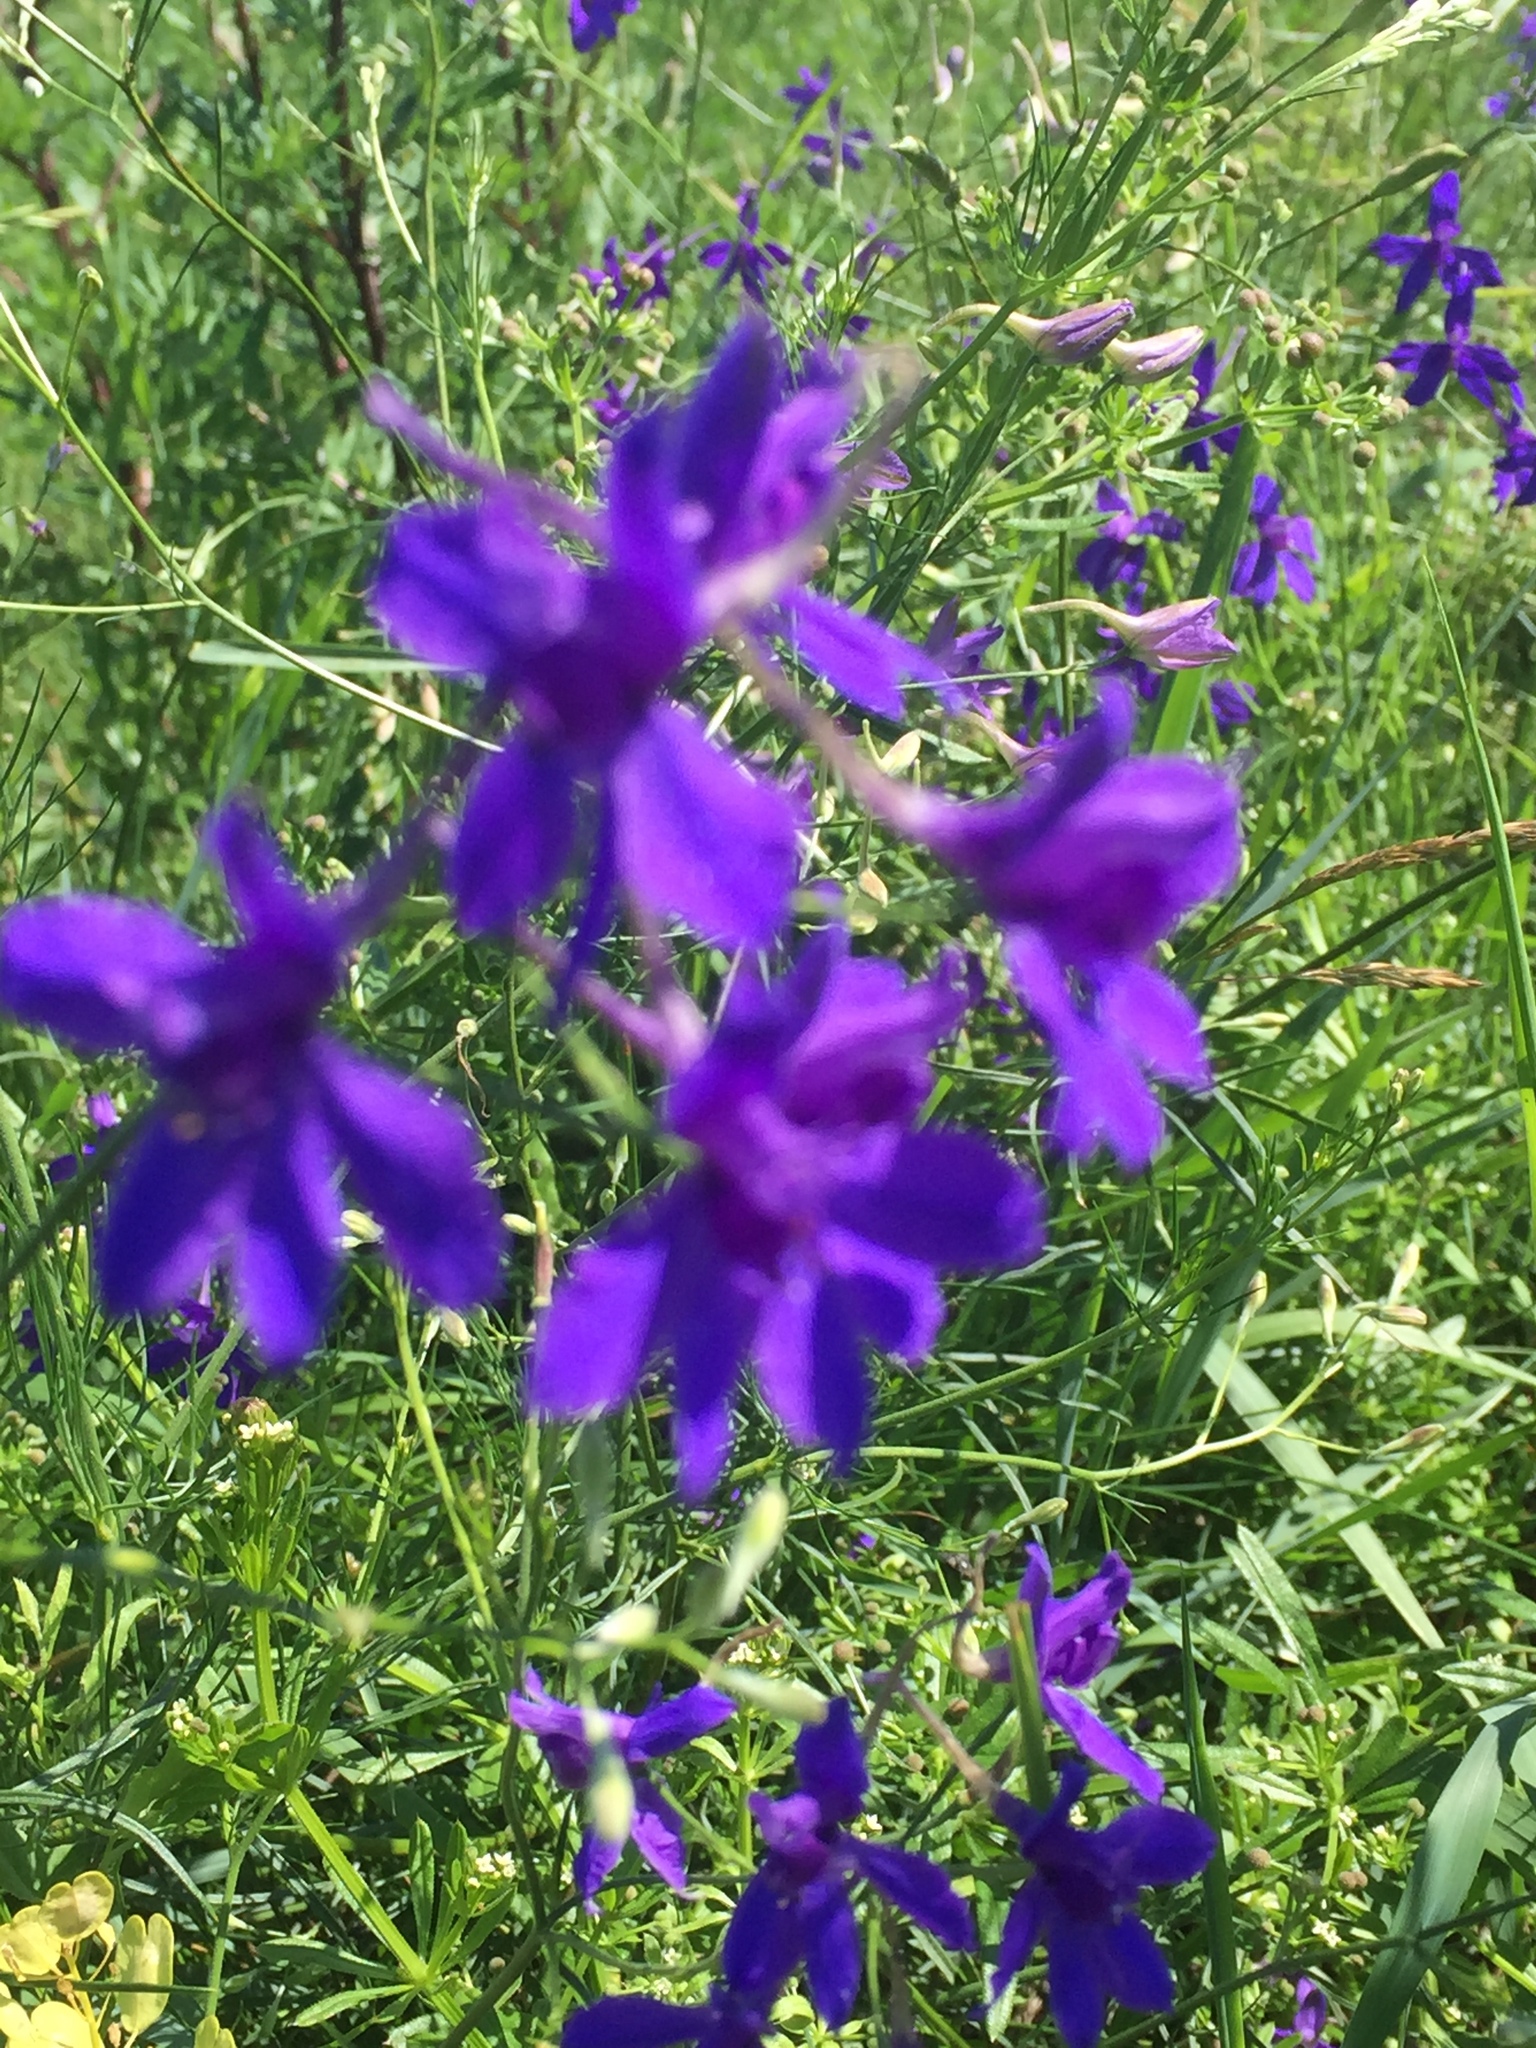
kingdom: Plantae
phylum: Tracheophyta
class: Magnoliopsida
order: Ranunculales
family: Ranunculaceae
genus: Delphinium
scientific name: Delphinium consolida
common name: Branching larkspur
